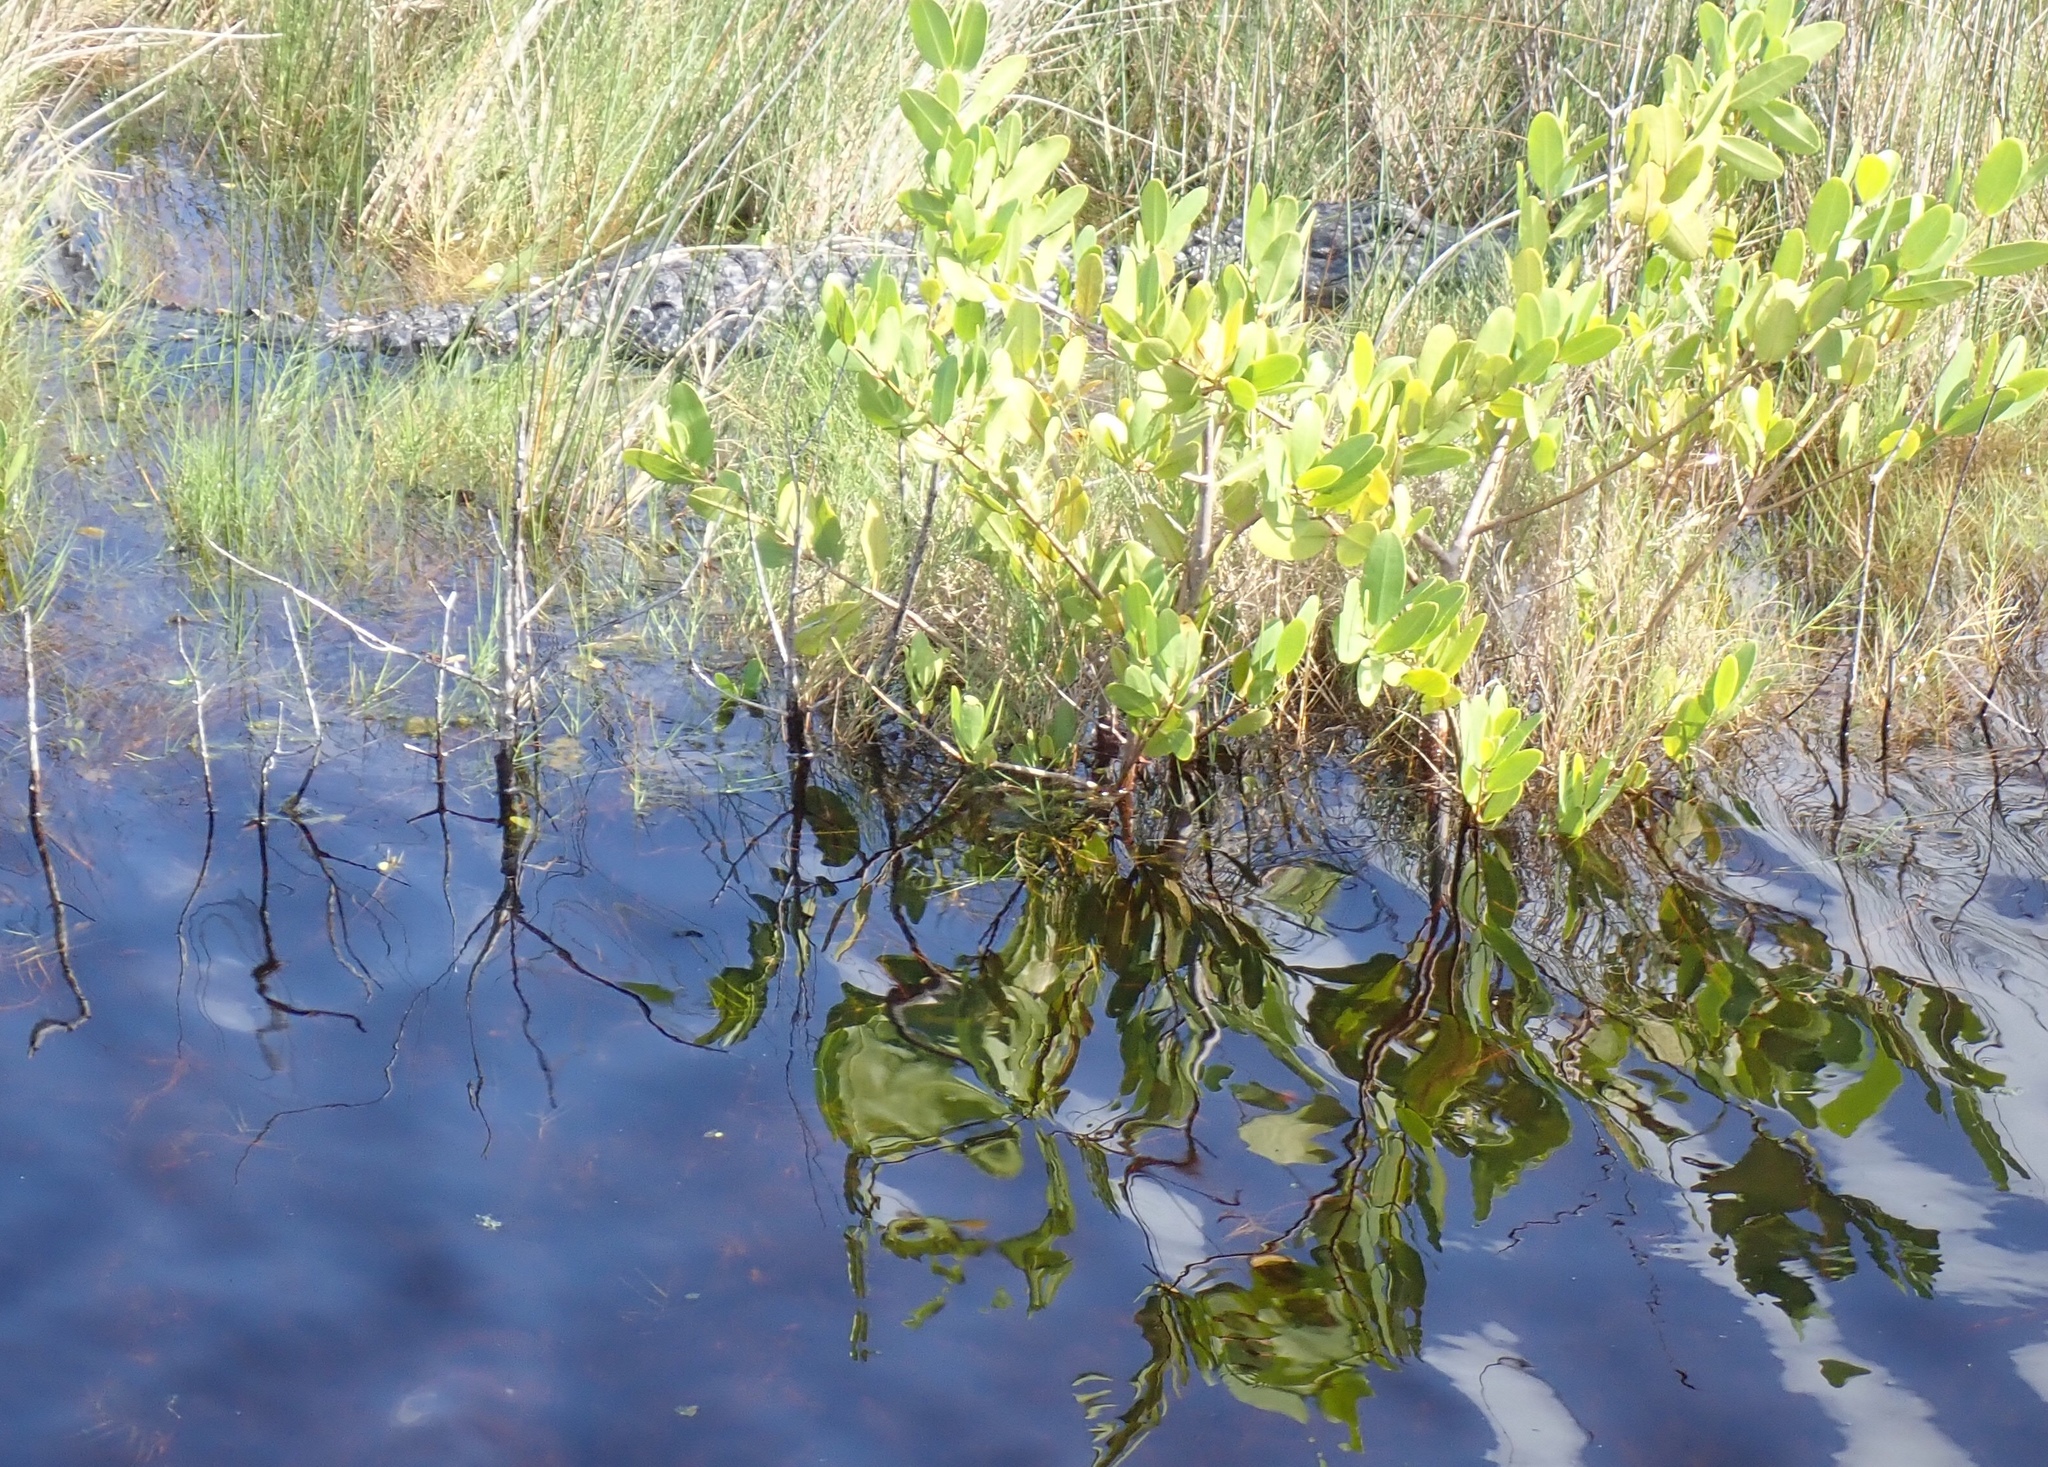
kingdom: Animalia
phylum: Chordata
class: Crocodylia
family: Alligatoridae
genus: Alligator
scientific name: Alligator mississippiensis
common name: American alligator
